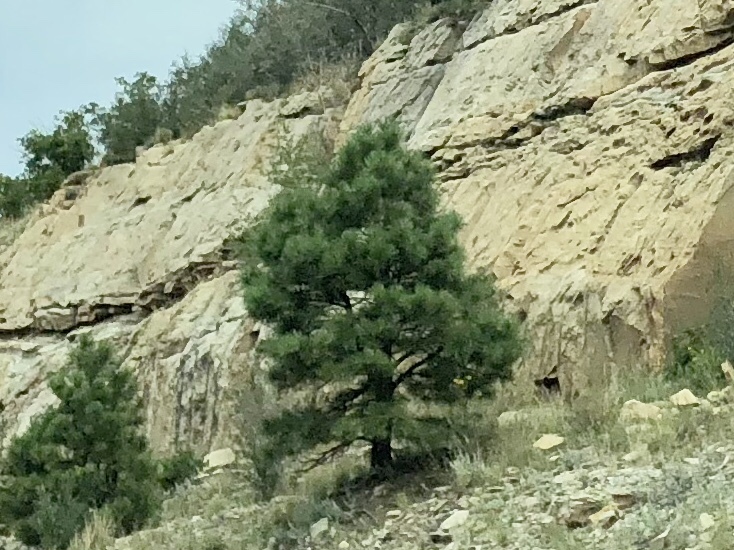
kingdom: Plantae
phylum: Tracheophyta
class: Pinopsida
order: Pinales
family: Pinaceae
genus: Pinus
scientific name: Pinus ponderosa
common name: Western yellow-pine
